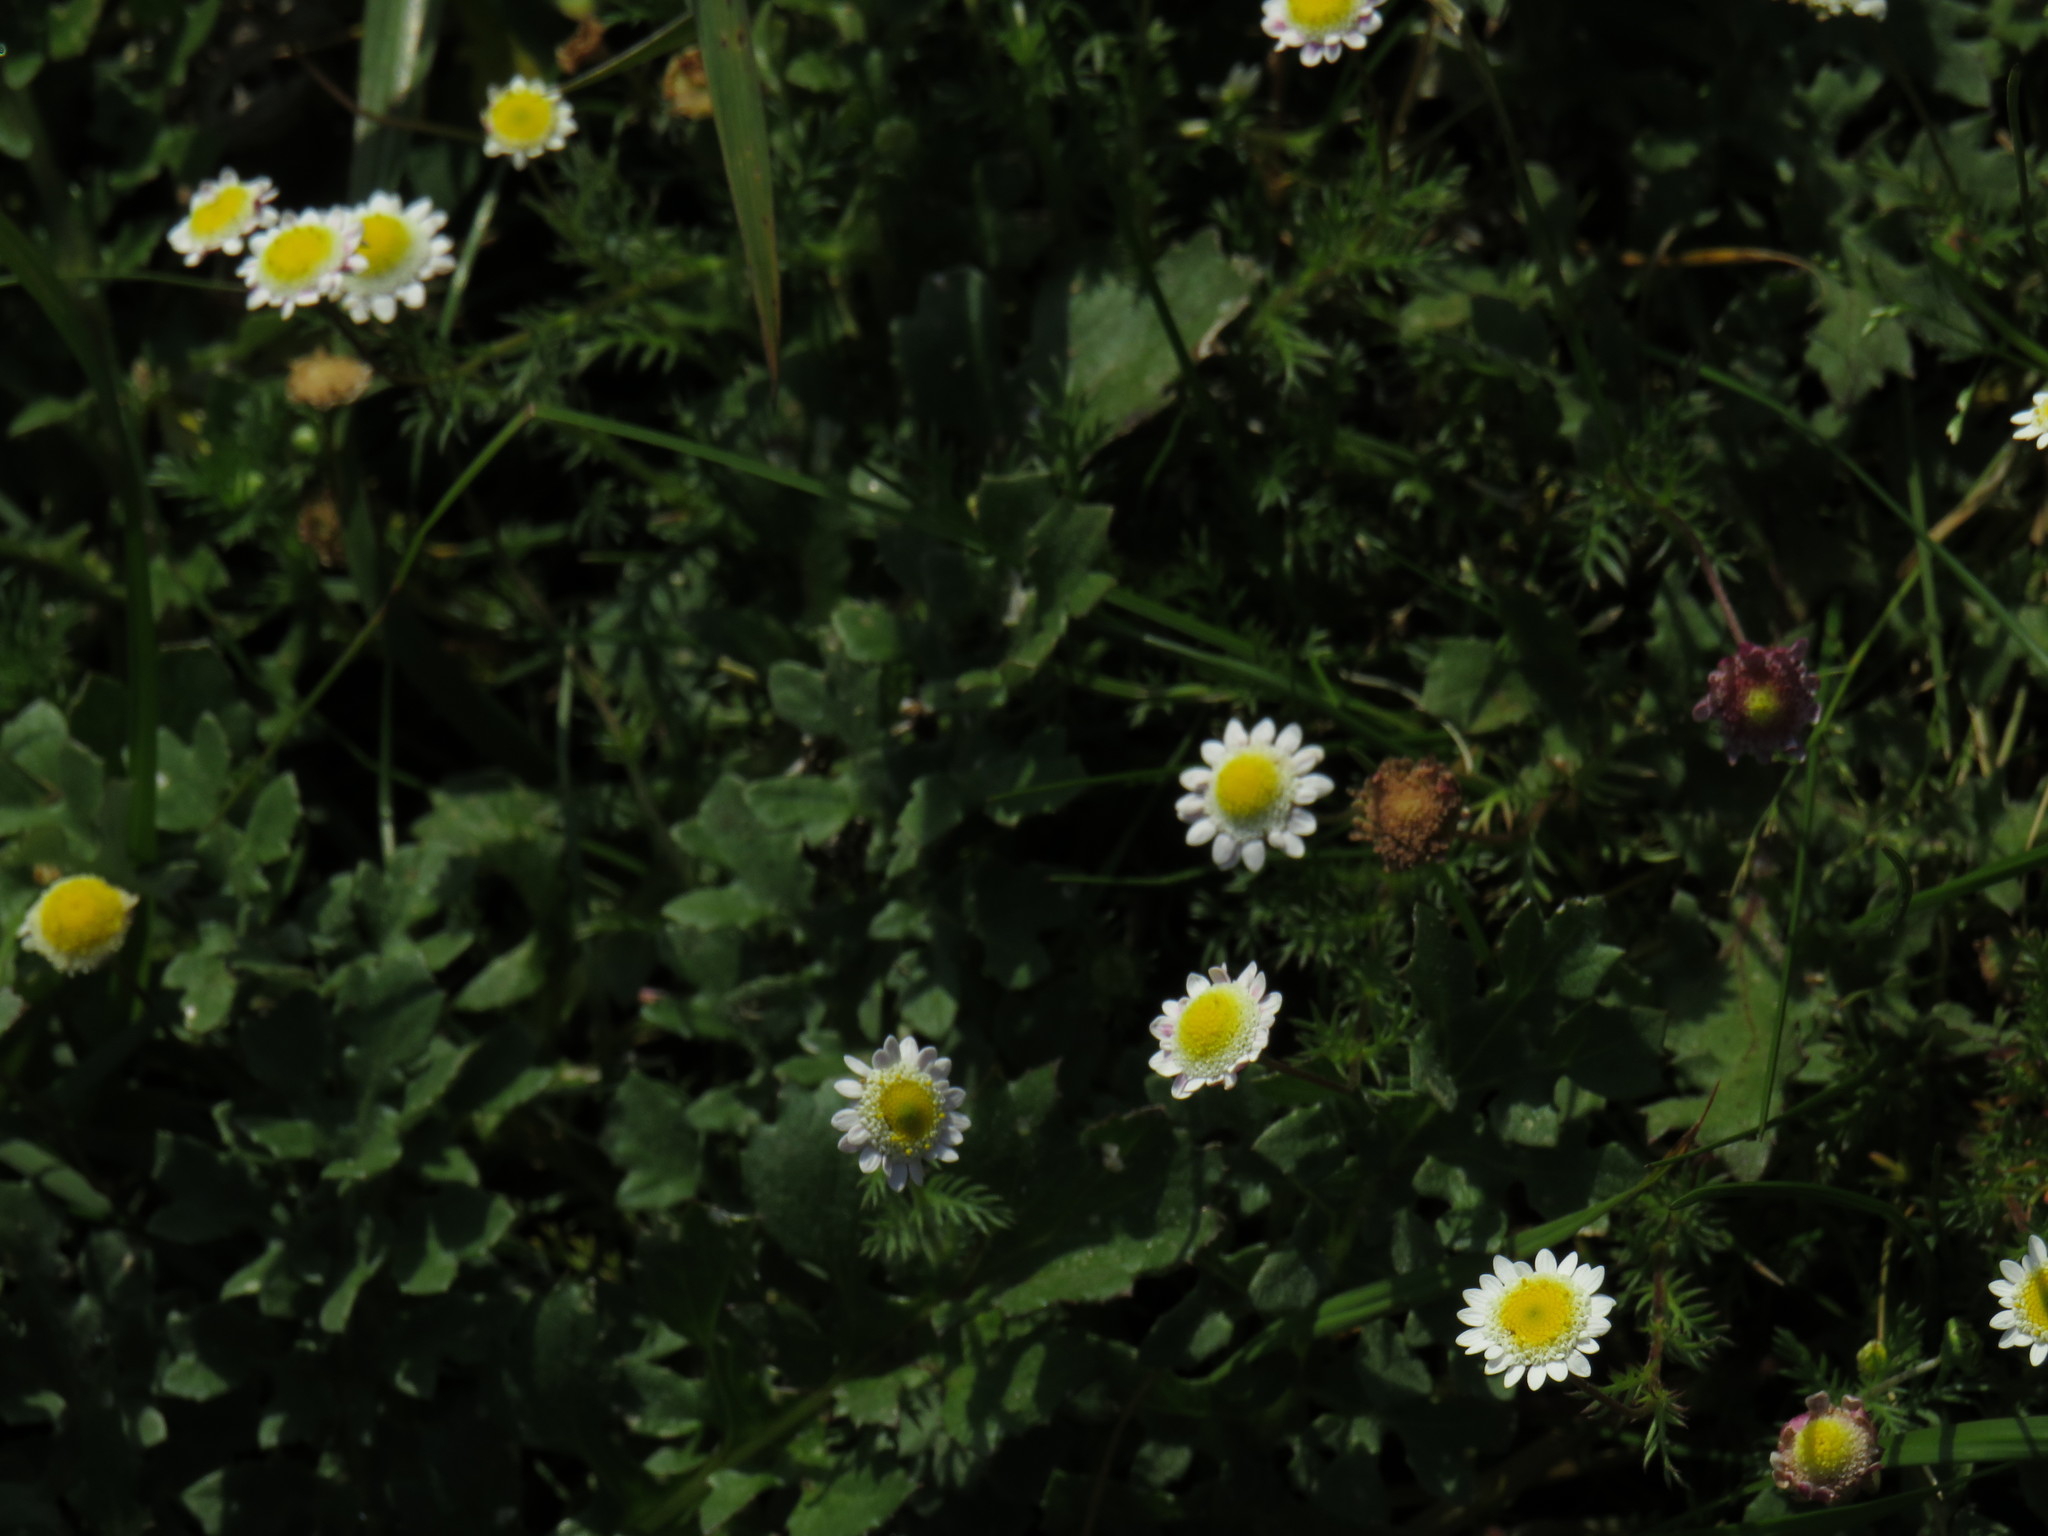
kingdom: Plantae
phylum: Tracheophyta
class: Magnoliopsida
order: Asterales
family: Asteraceae
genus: Cotula
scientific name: Cotula turbinata
